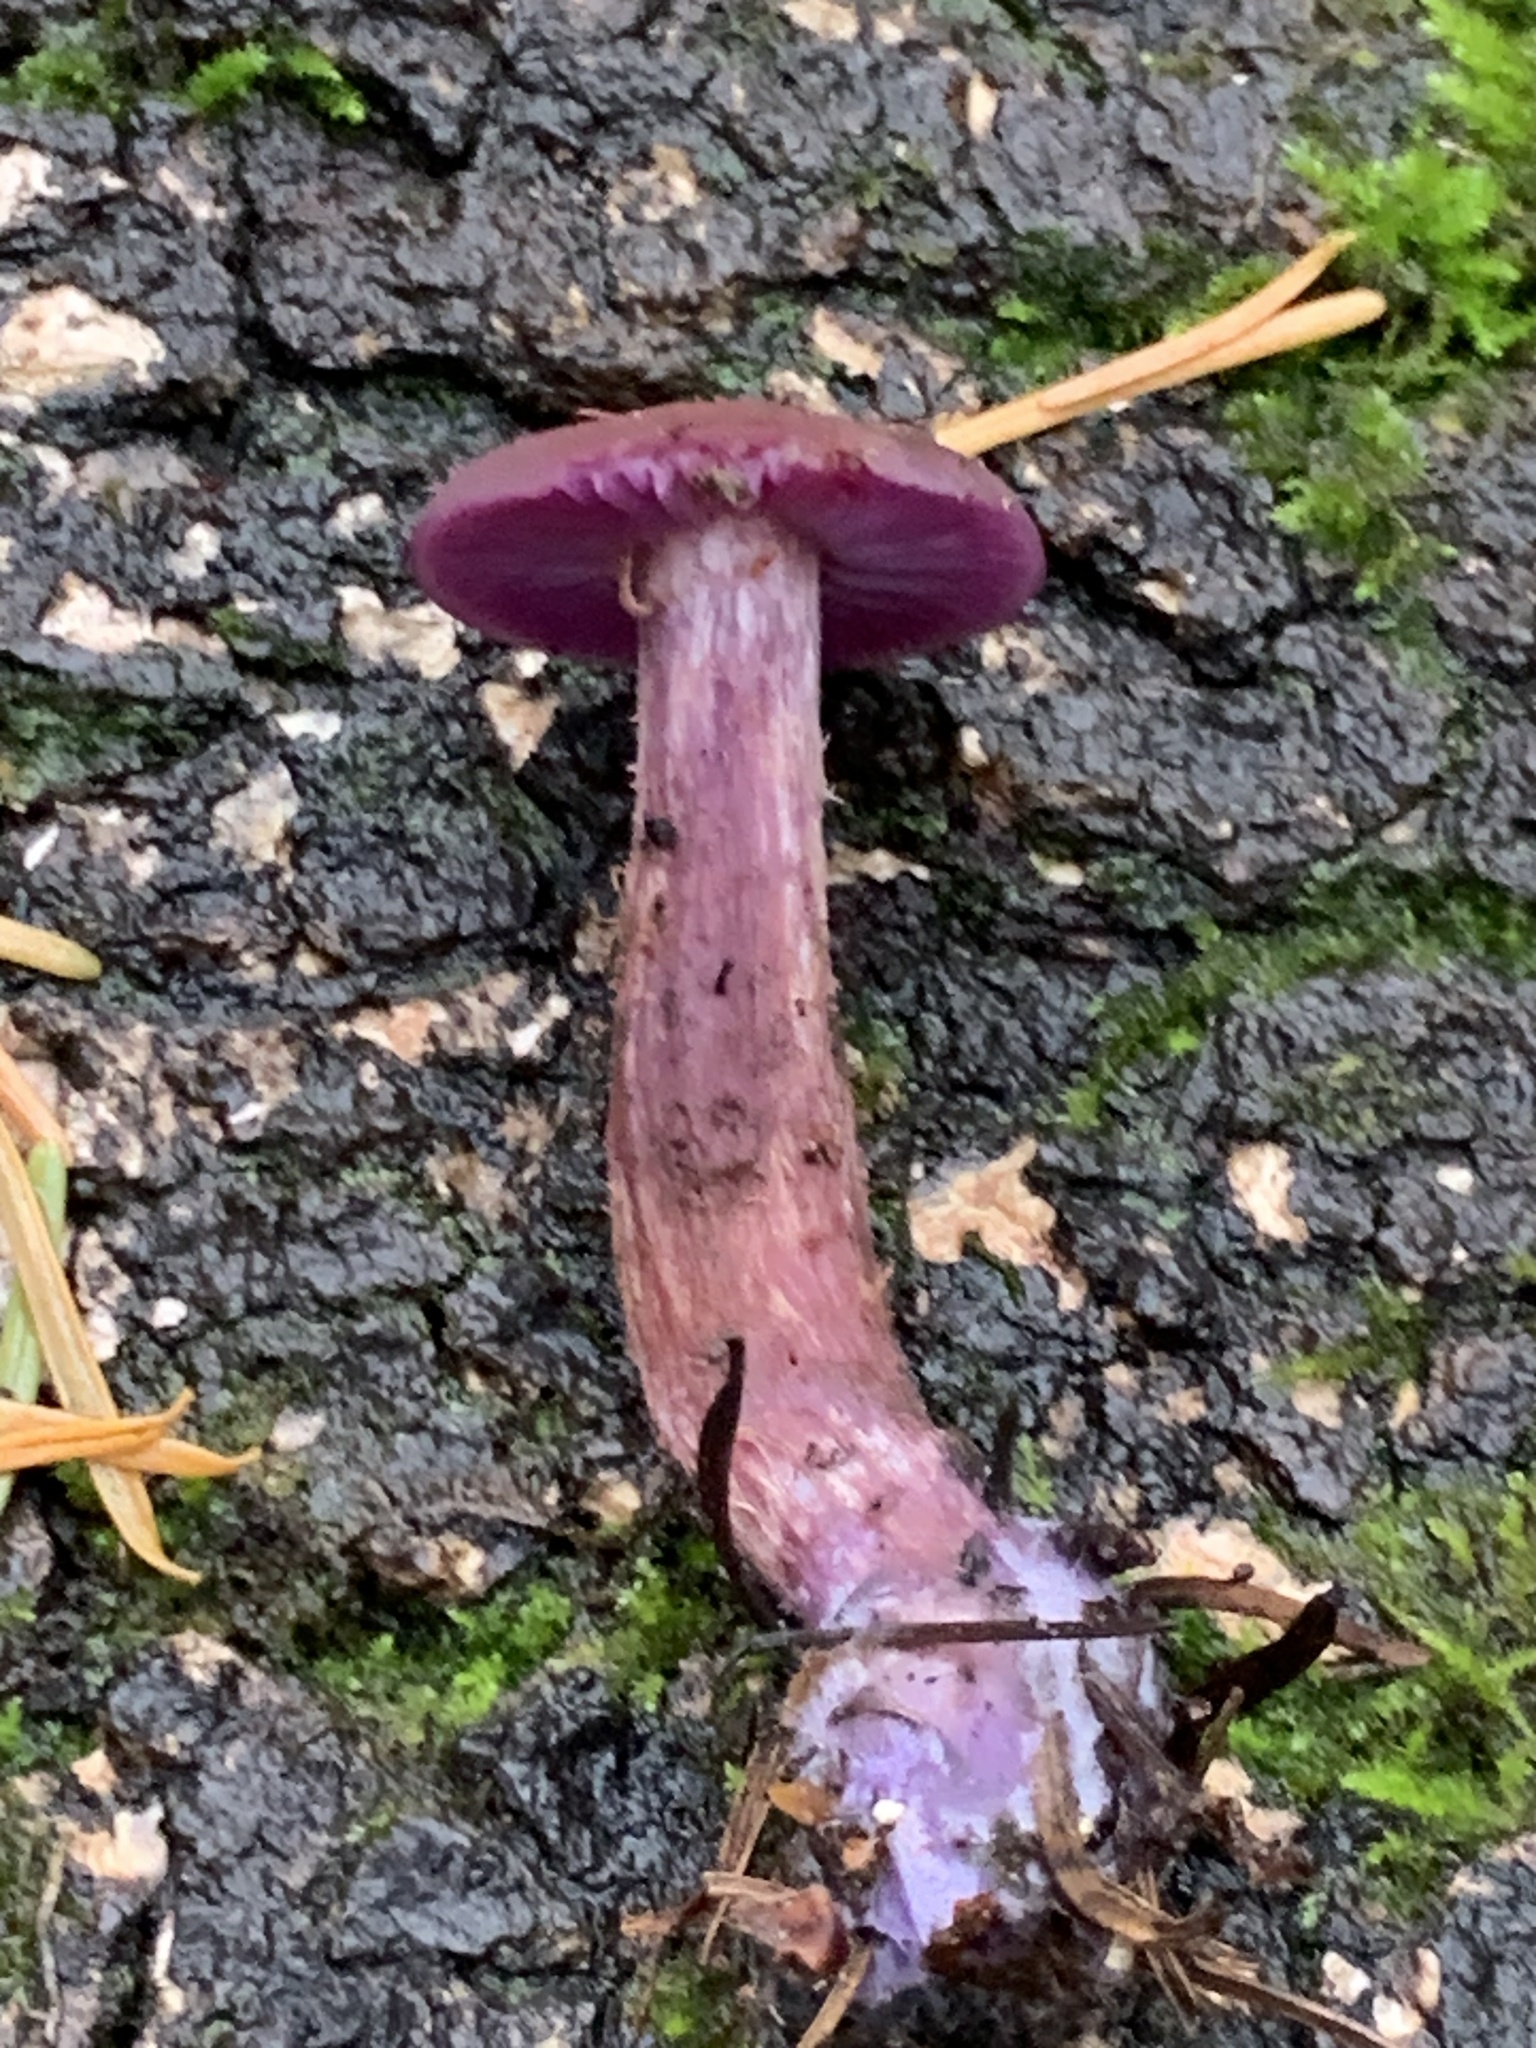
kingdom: Fungi
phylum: Basidiomycota
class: Agaricomycetes
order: Agaricales
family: Hydnangiaceae
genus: Laccaria
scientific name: Laccaria amethysteo-occidentalis
